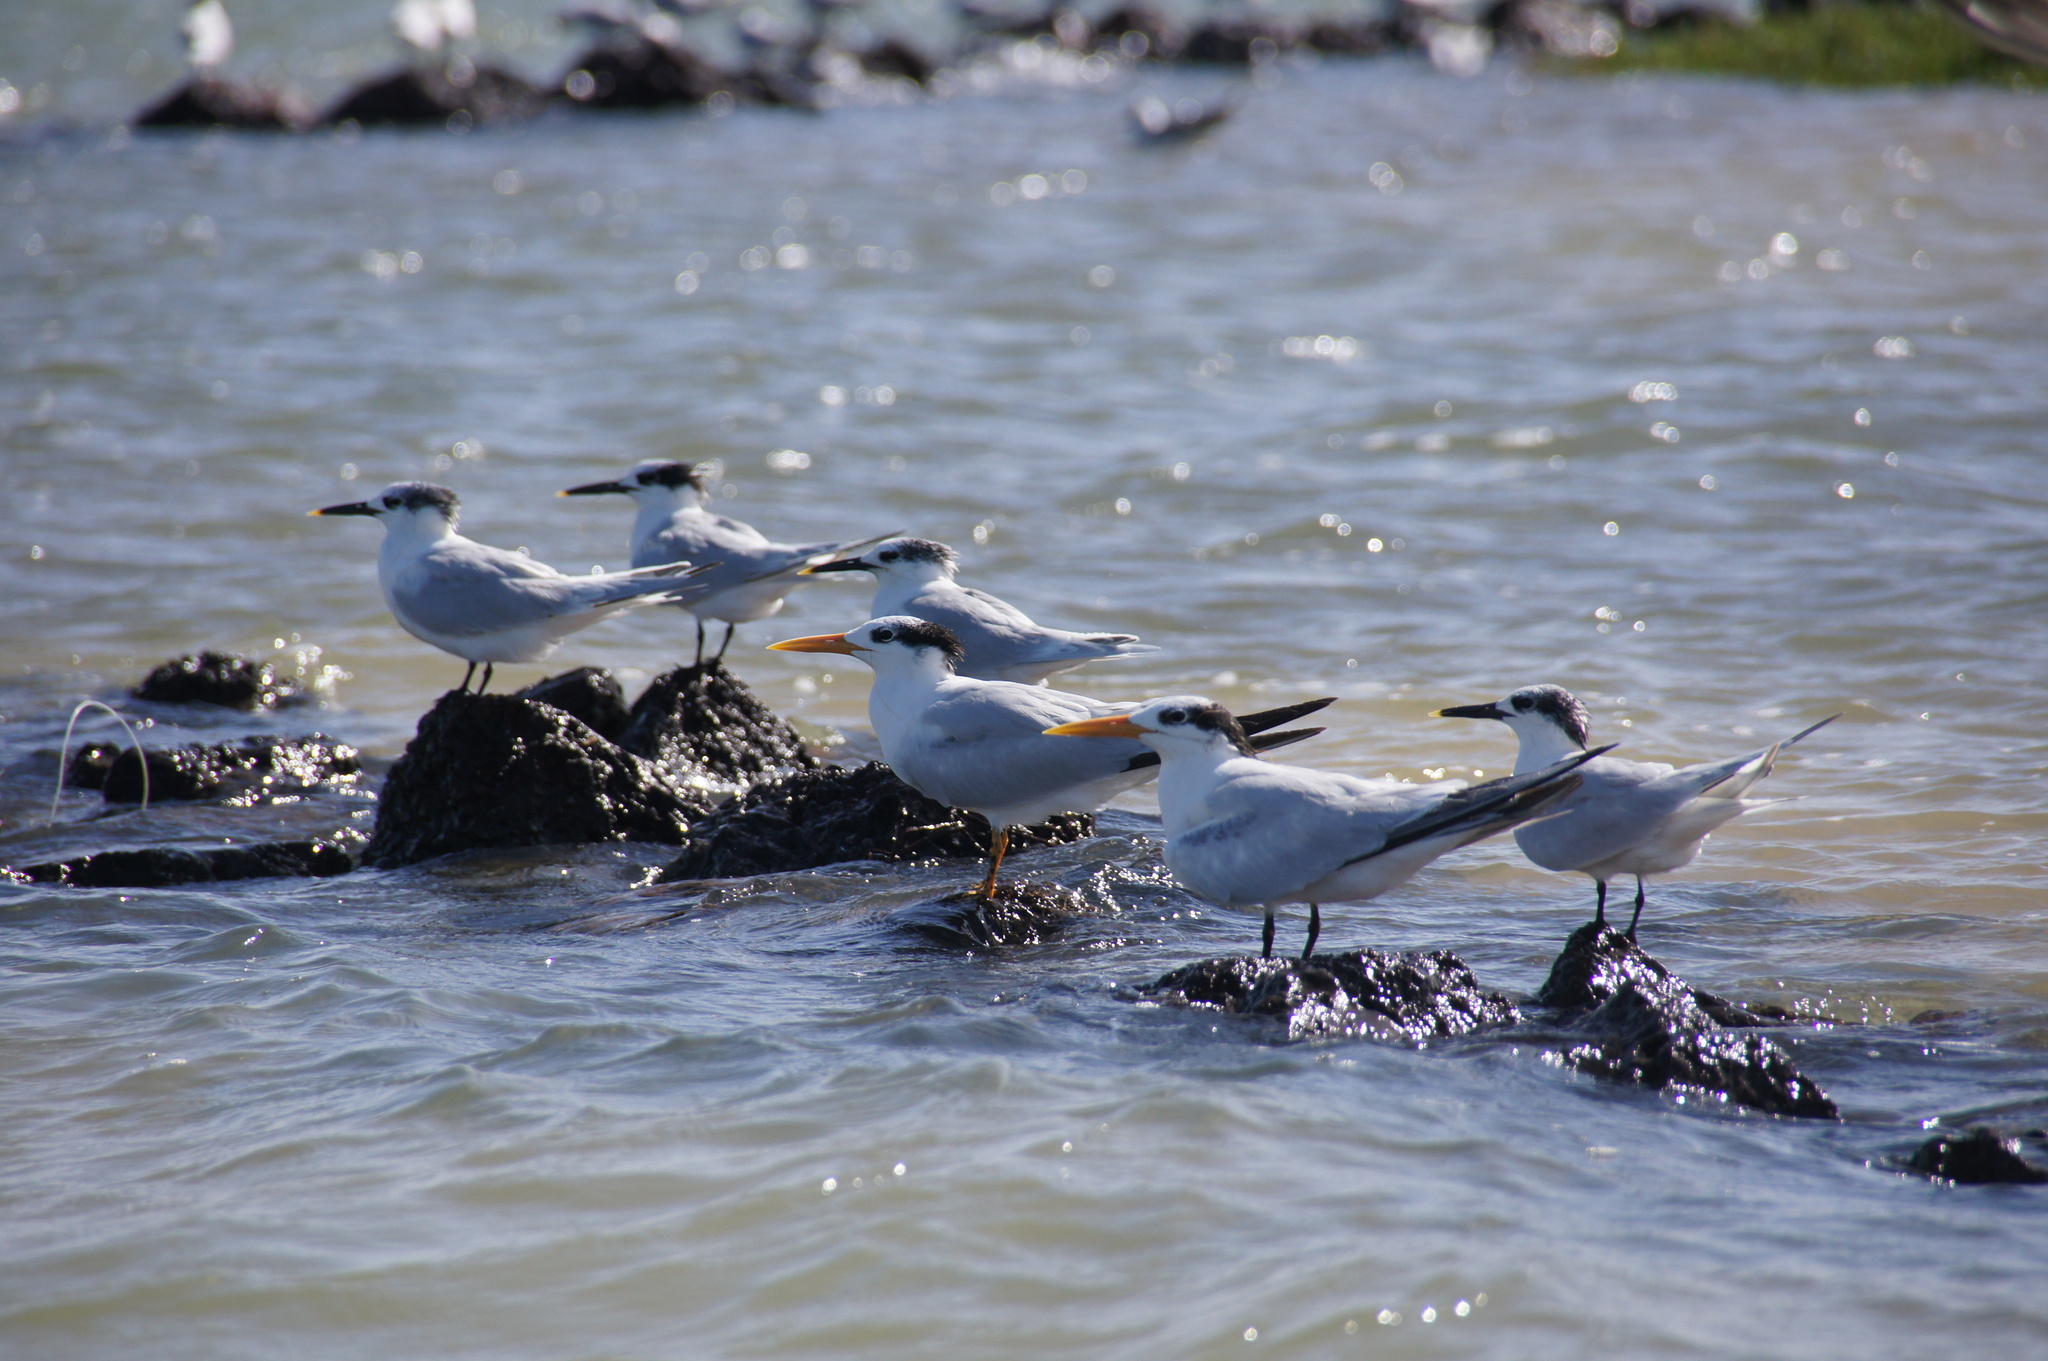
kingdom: Animalia
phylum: Chordata
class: Aves
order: Charadriiformes
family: Laridae
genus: Thalasseus
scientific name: Thalasseus sandvicensis
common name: Sandwich tern
